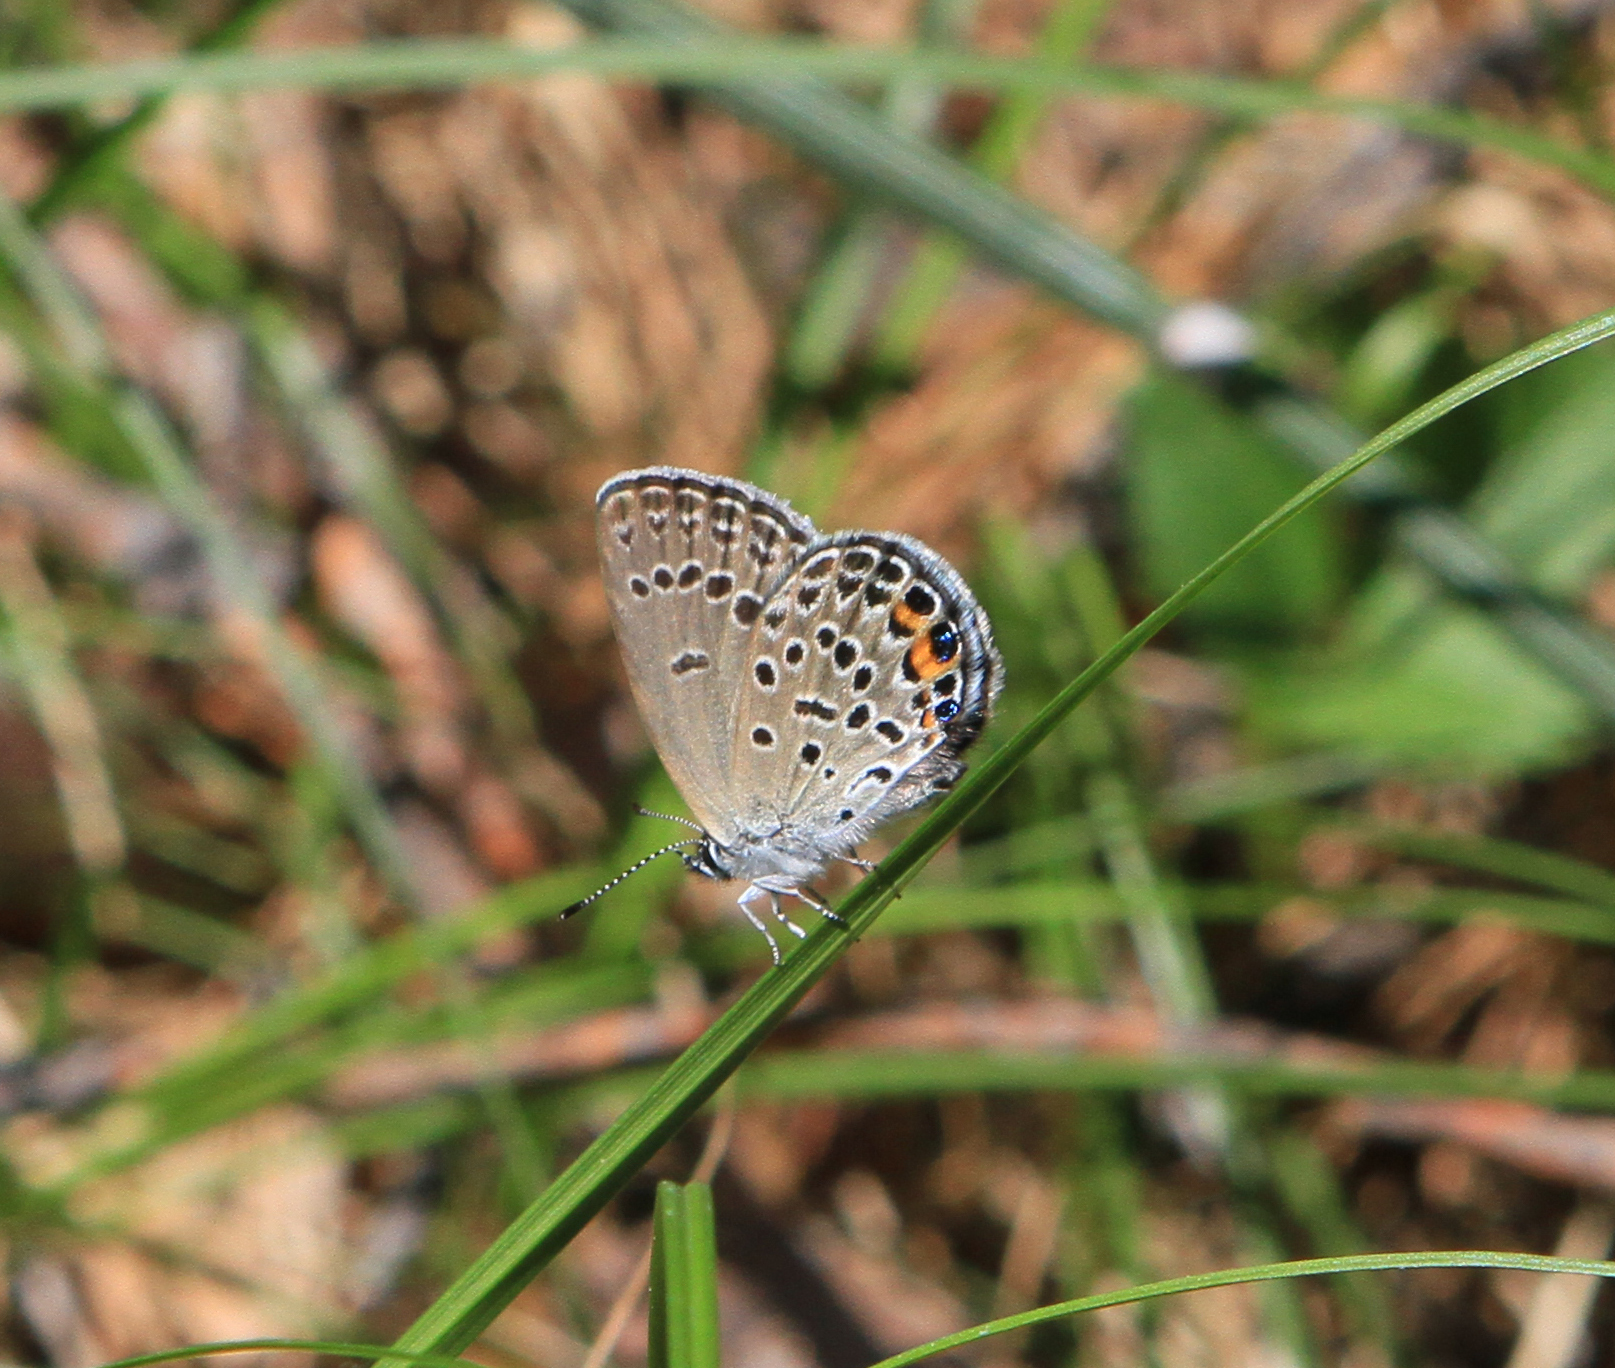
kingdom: Animalia
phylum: Arthropoda
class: Insecta
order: Lepidoptera
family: Lycaenidae
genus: Vacciniina
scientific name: Vacciniina optilete
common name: Cranberry blue
